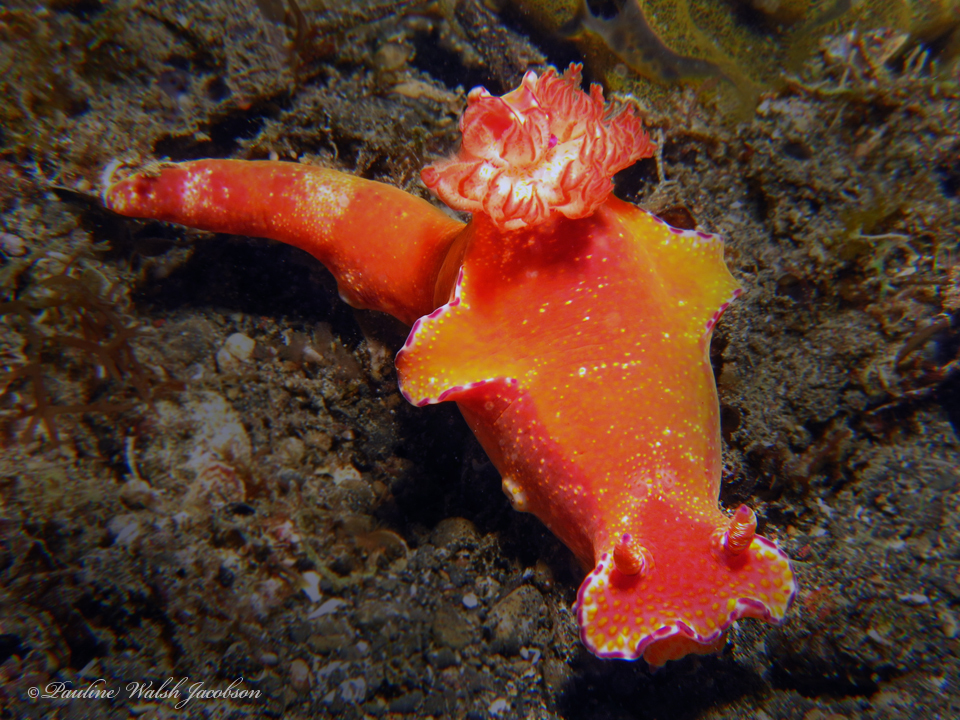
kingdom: Animalia
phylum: Mollusca
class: Gastropoda
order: Nudibranchia
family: Chromodorididae
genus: Ceratosoma
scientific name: Ceratosoma gracillimum
